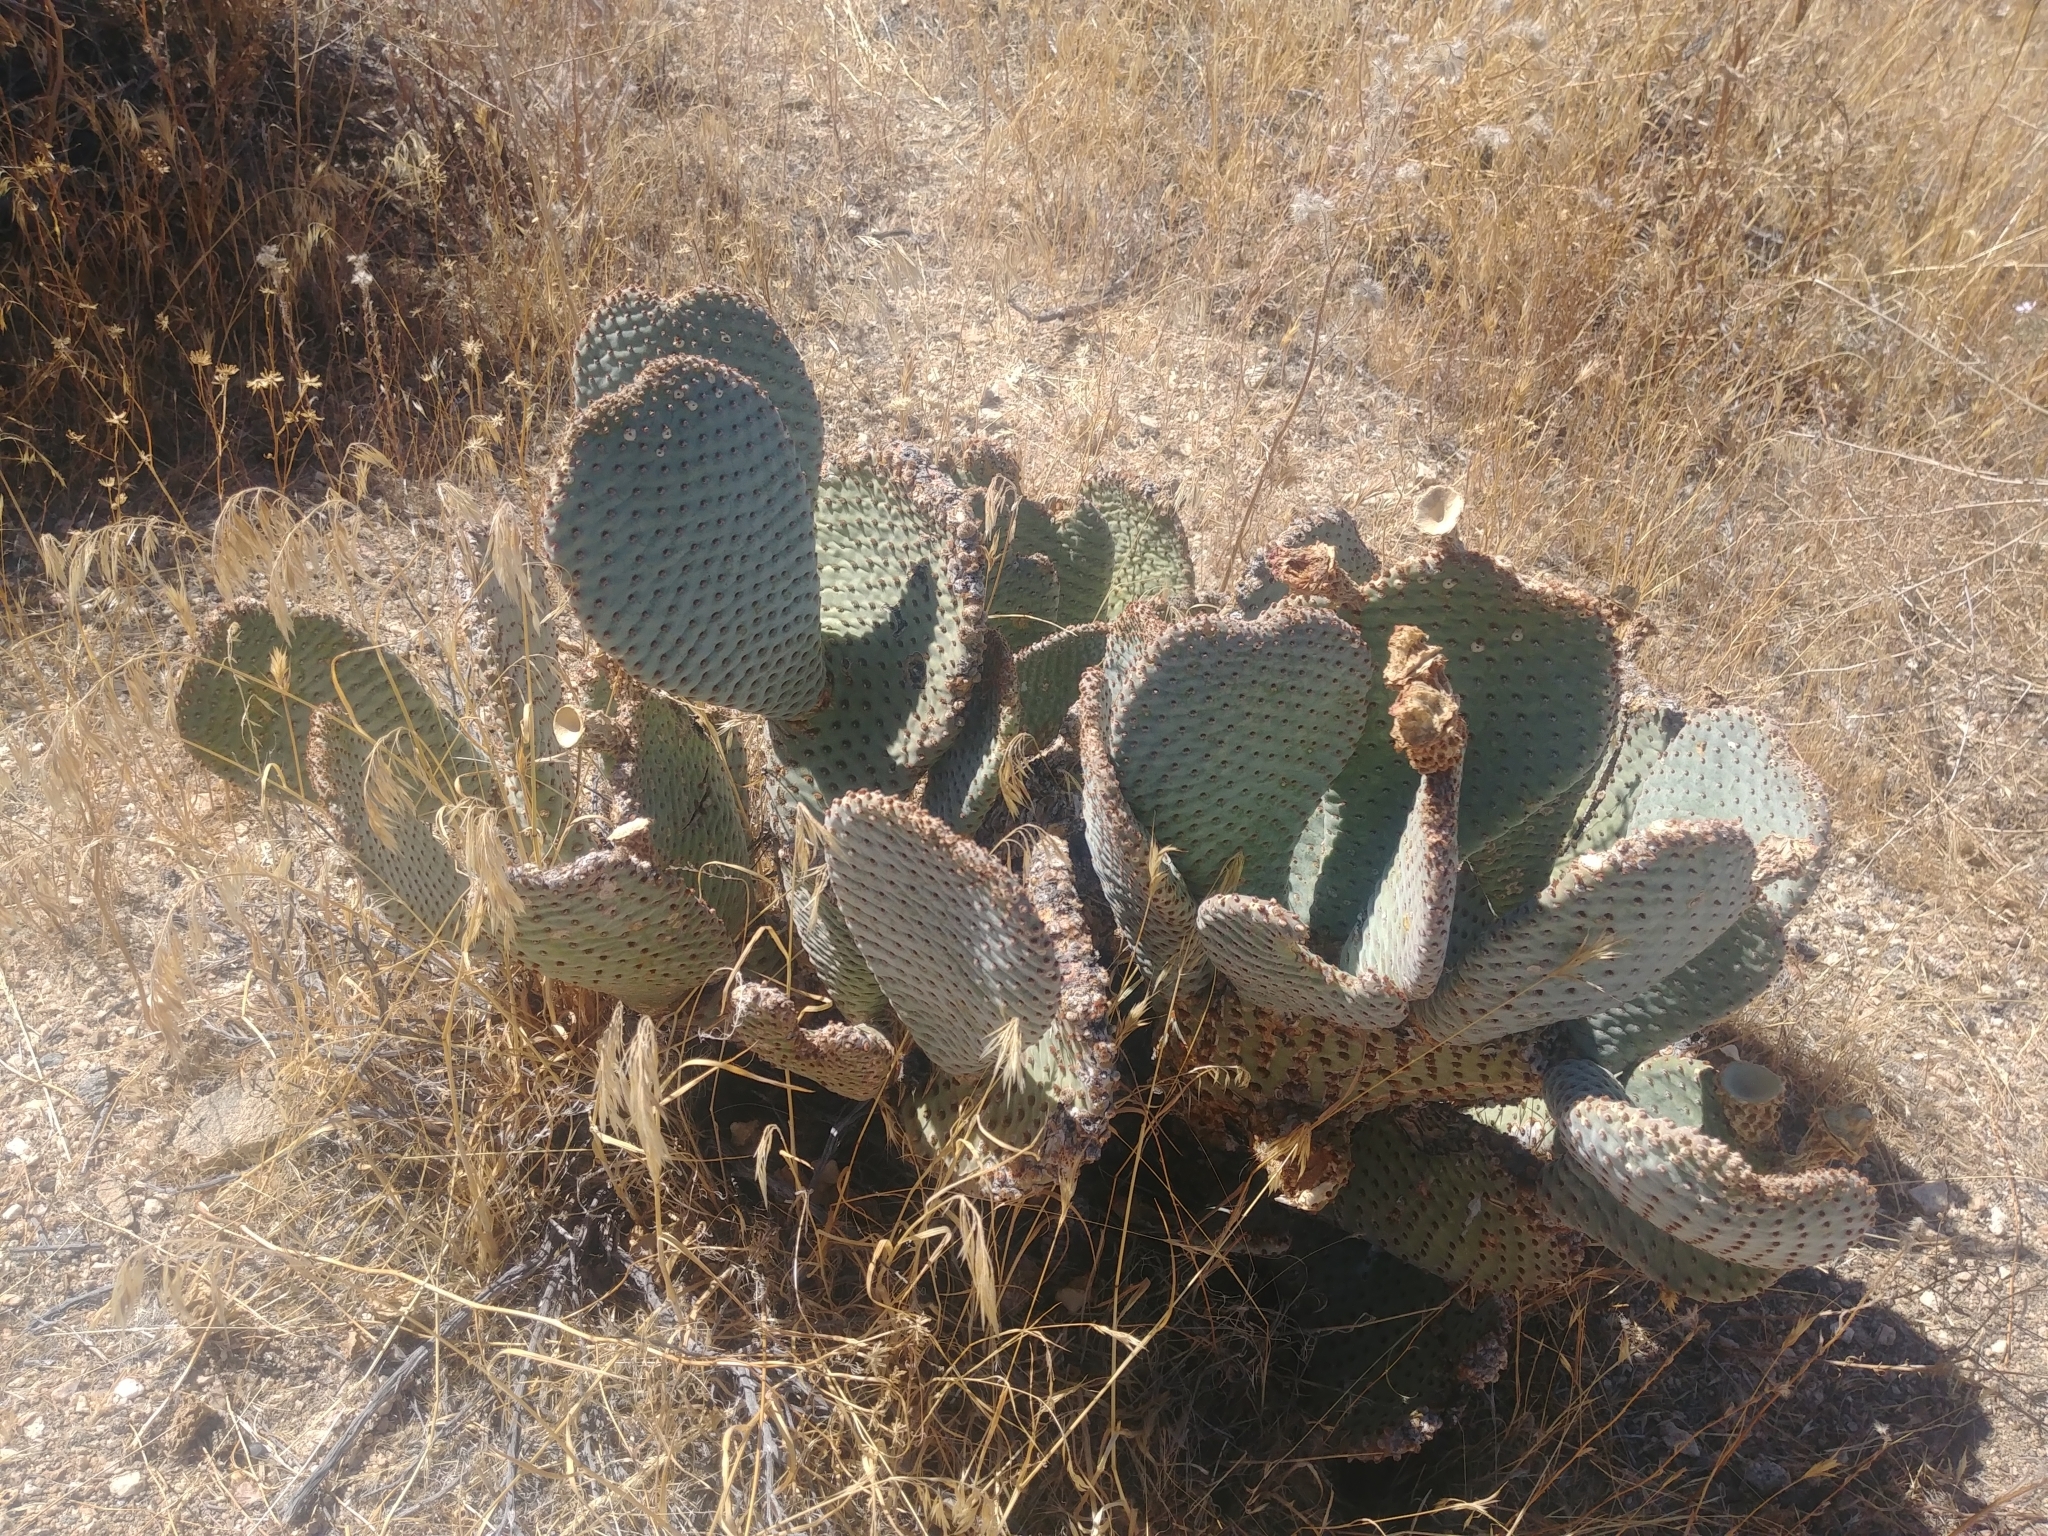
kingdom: Plantae
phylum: Tracheophyta
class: Magnoliopsida
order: Caryophyllales
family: Cactaceae
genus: Opuntia
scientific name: Opuntia basilaris
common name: Beavertail prickly-pear
